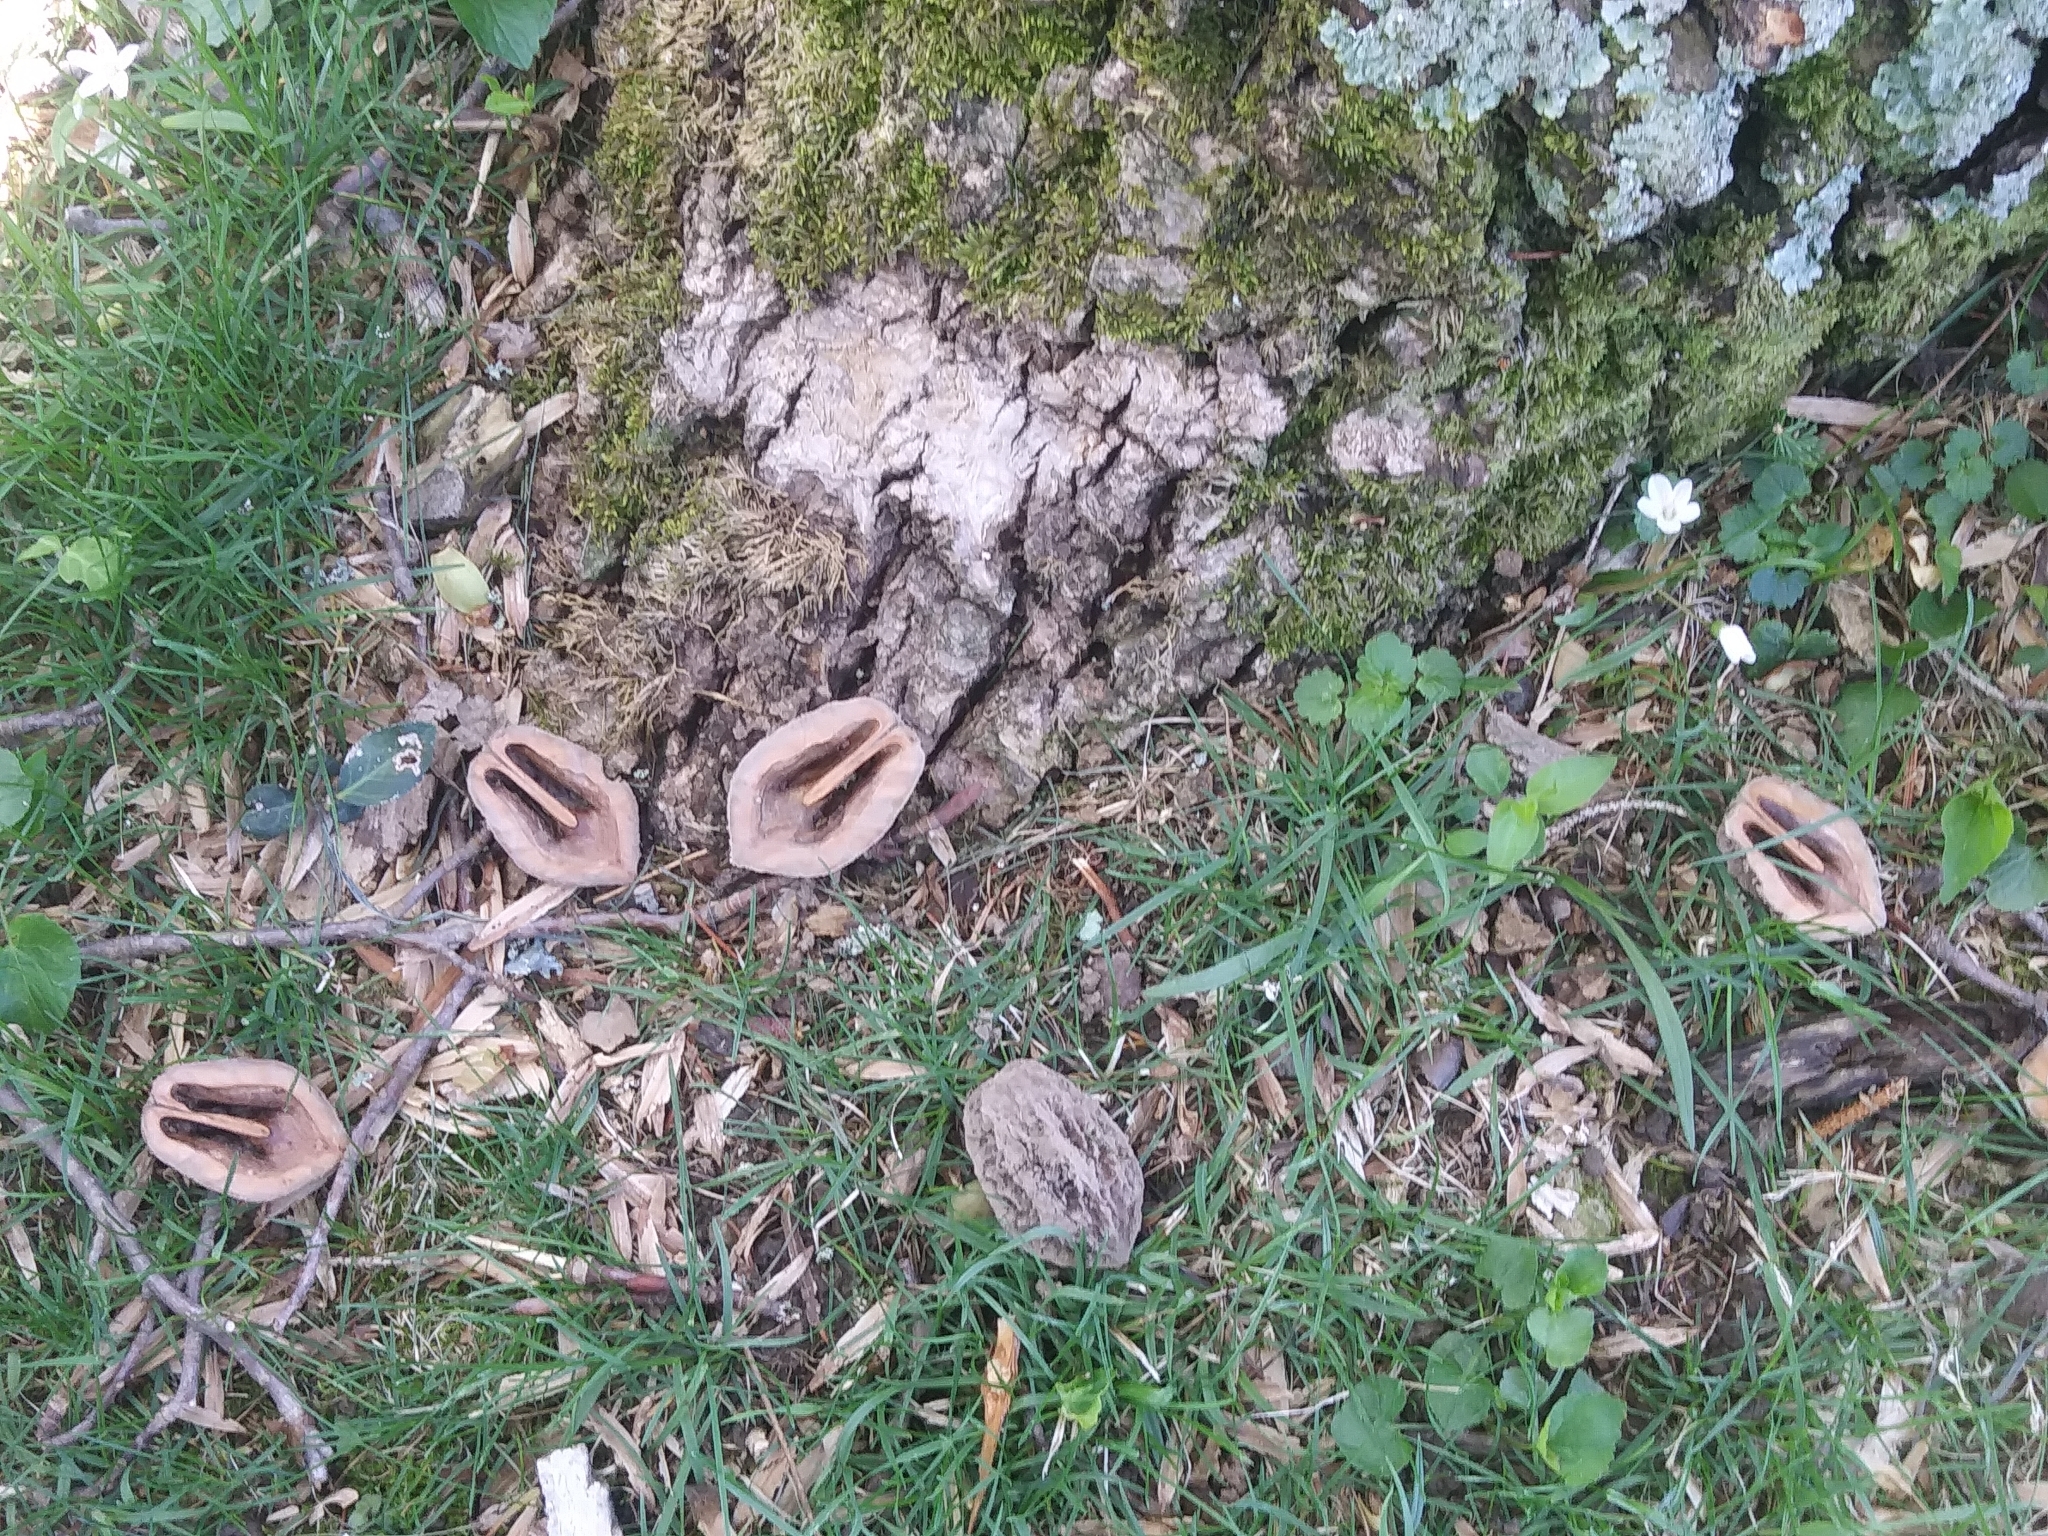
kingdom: Plantae
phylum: Tracheophyta
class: Magnoliopsida
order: Fagales
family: Juglandaceae
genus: Juglans
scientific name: Juglans cinerea
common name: Butternut
